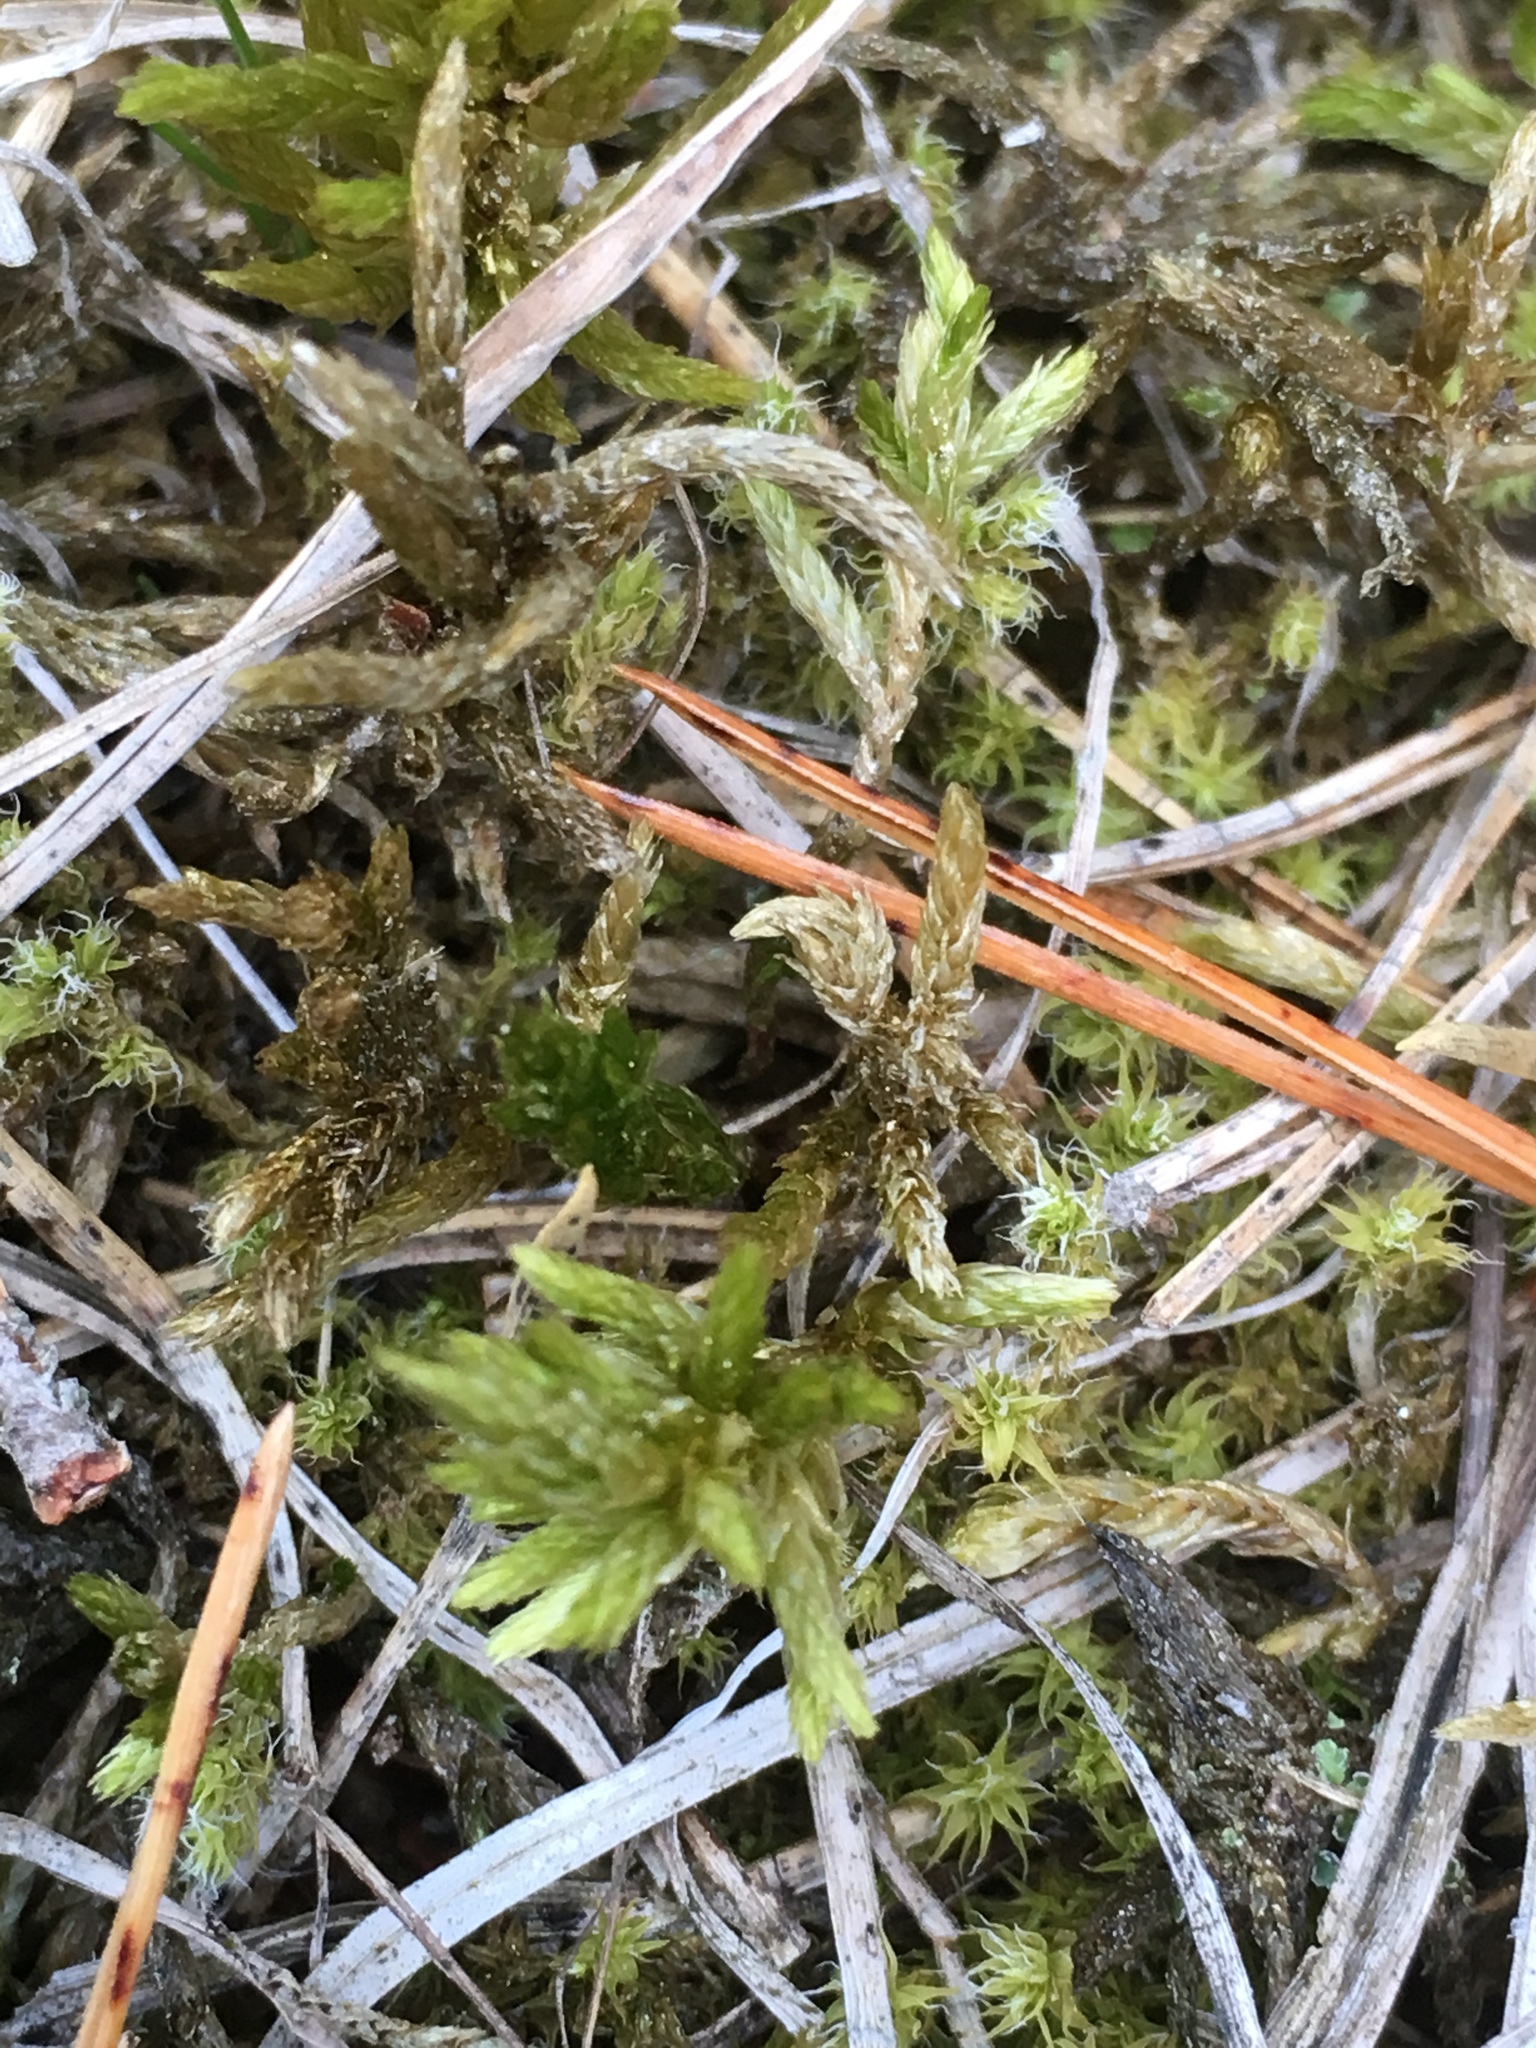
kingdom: Plantae
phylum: Bryophyta
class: Bryopsida
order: Hypnales
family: Climaciaceae
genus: Climacium
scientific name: Climacium dendroides
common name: Northern tree moss
